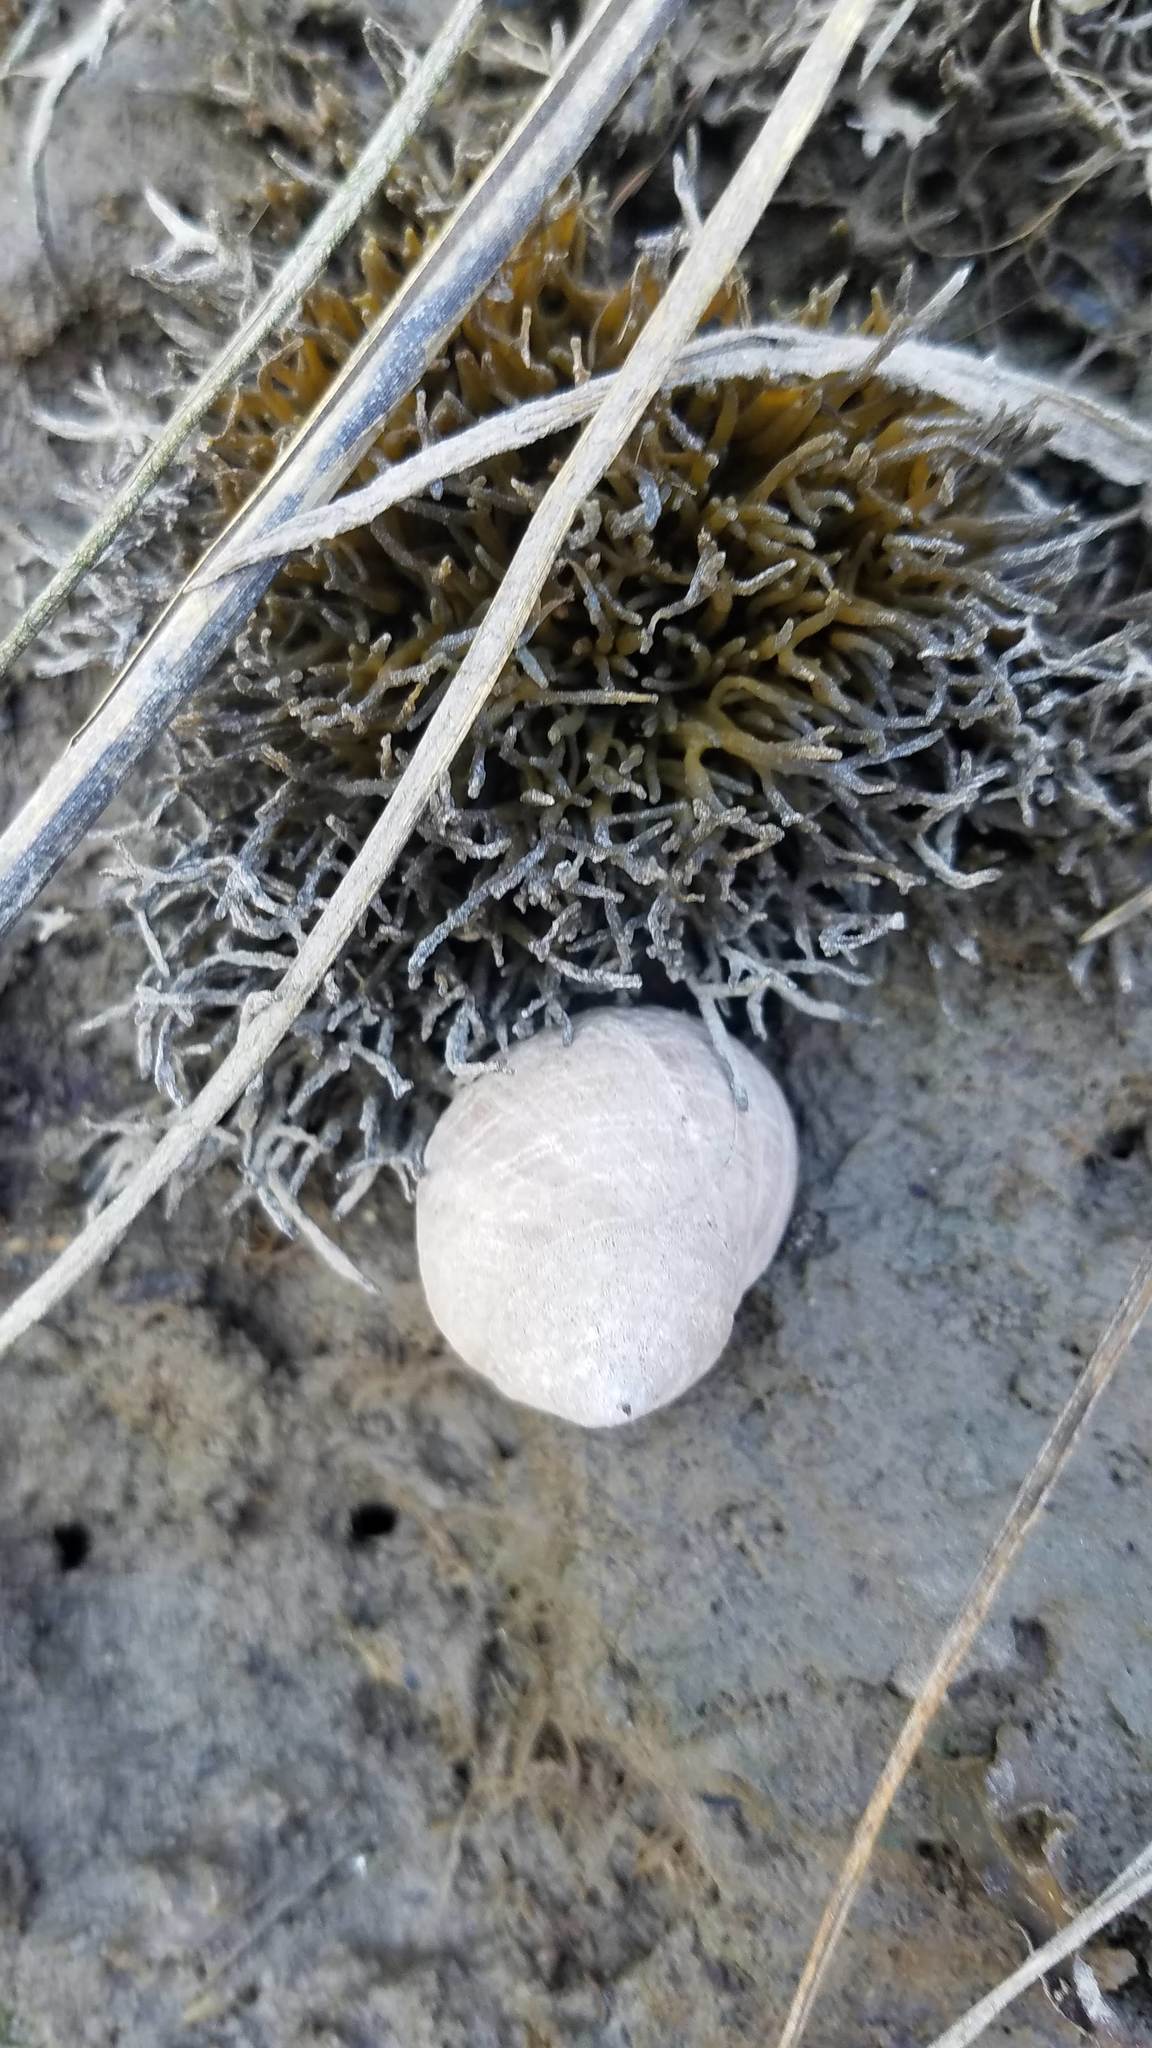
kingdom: Animalia
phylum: Mollusca
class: Gastropoda
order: Littorinimorpha
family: Littorinidae
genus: Littorina
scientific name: Littorina littorea
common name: Common periwinkle
